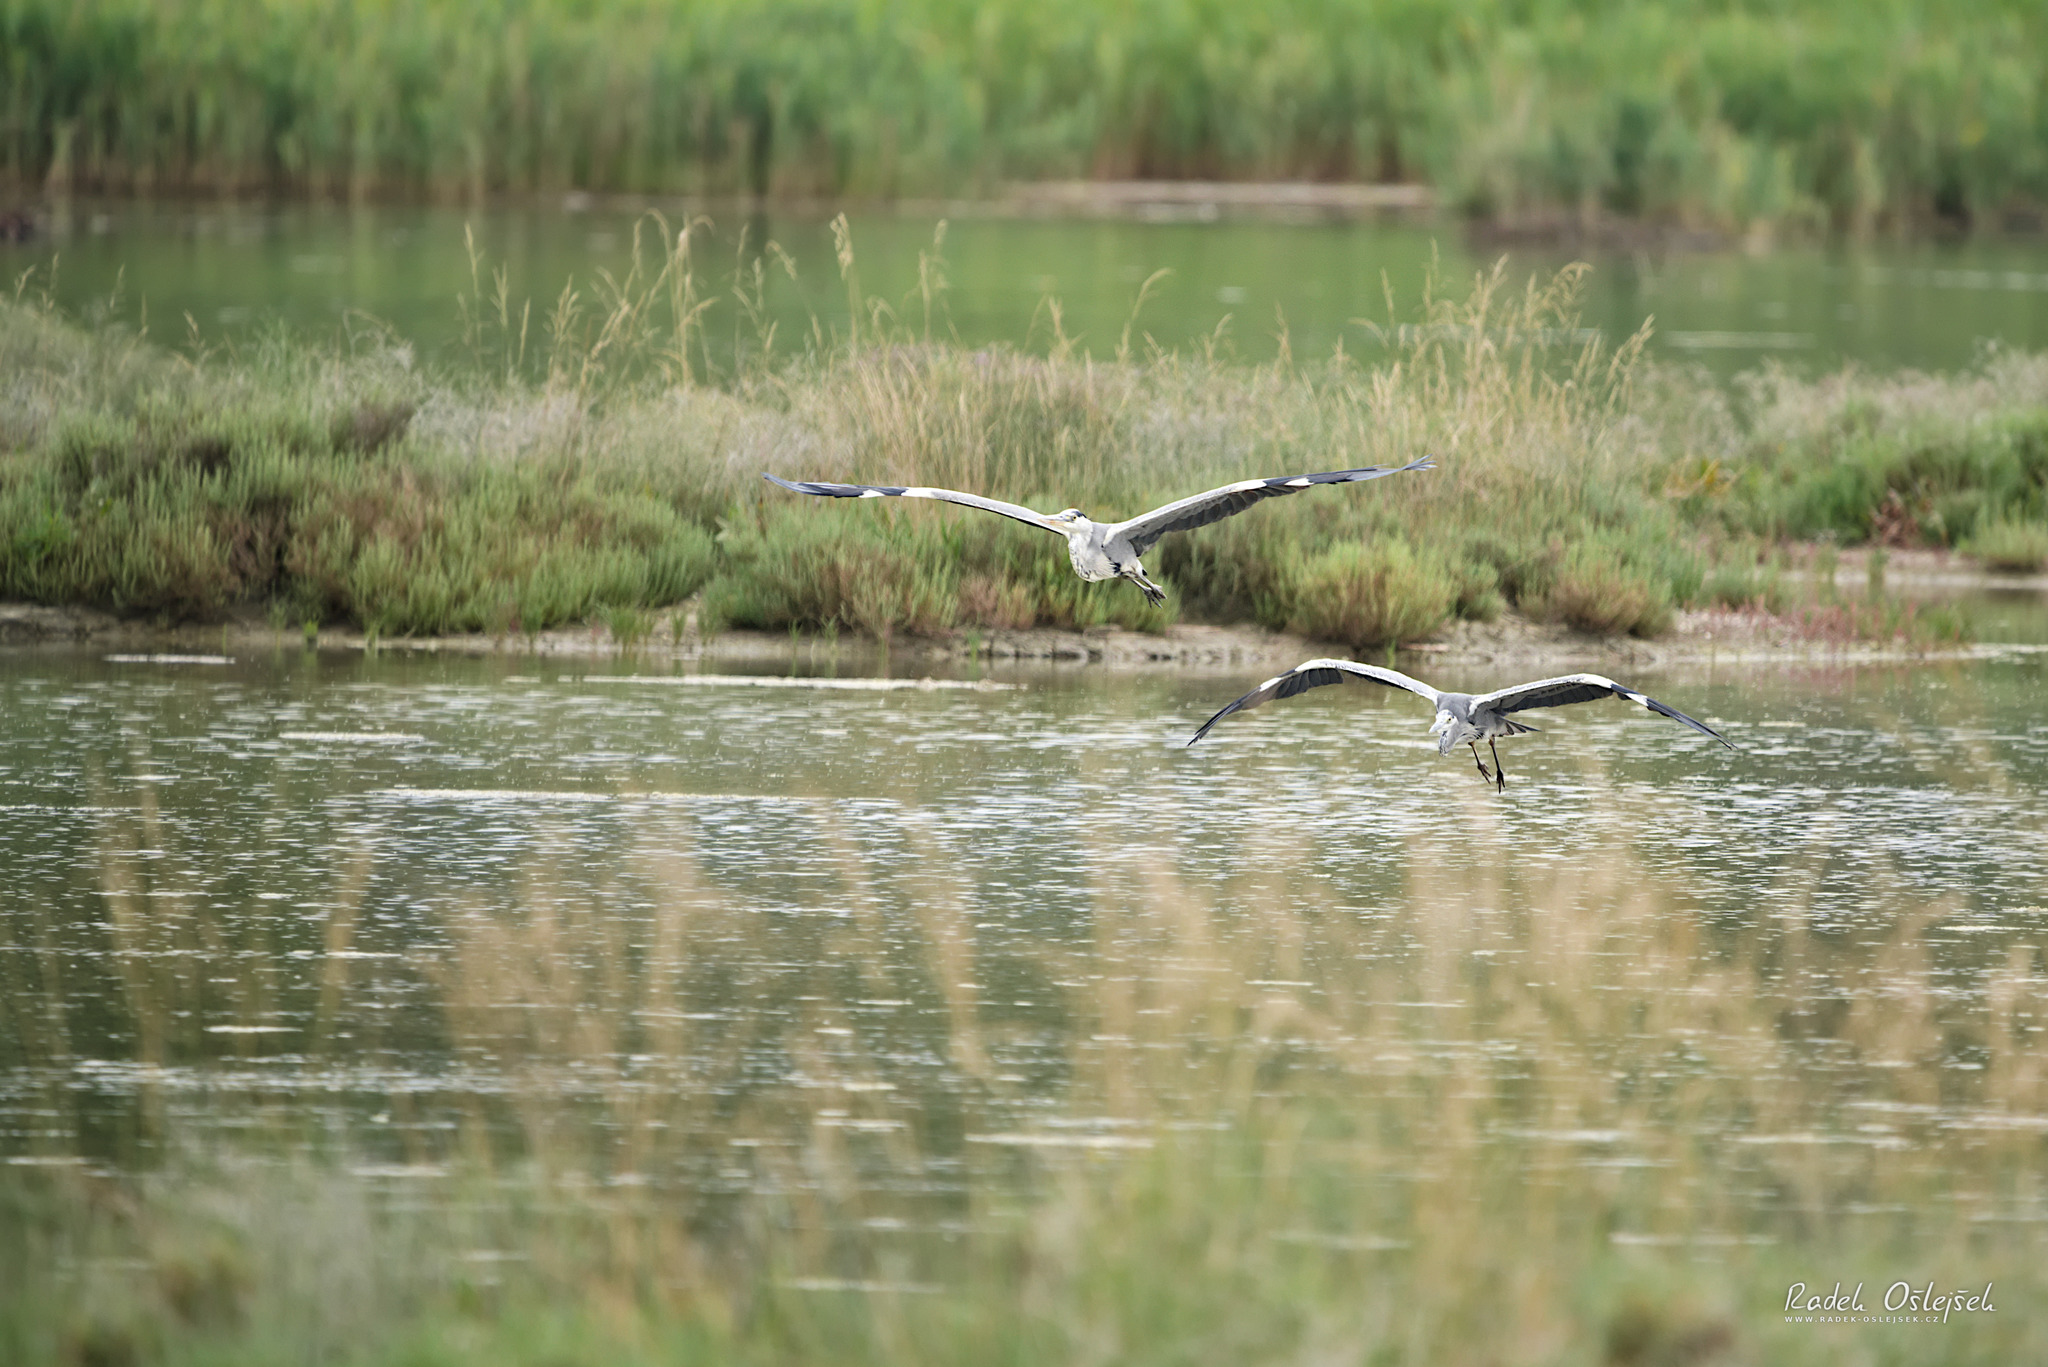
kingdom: Animalia
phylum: Chordata
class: Aves
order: Pelecaniformes
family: Ardeidae
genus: Ardea
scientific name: Ardea cinerea
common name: Grey heron
